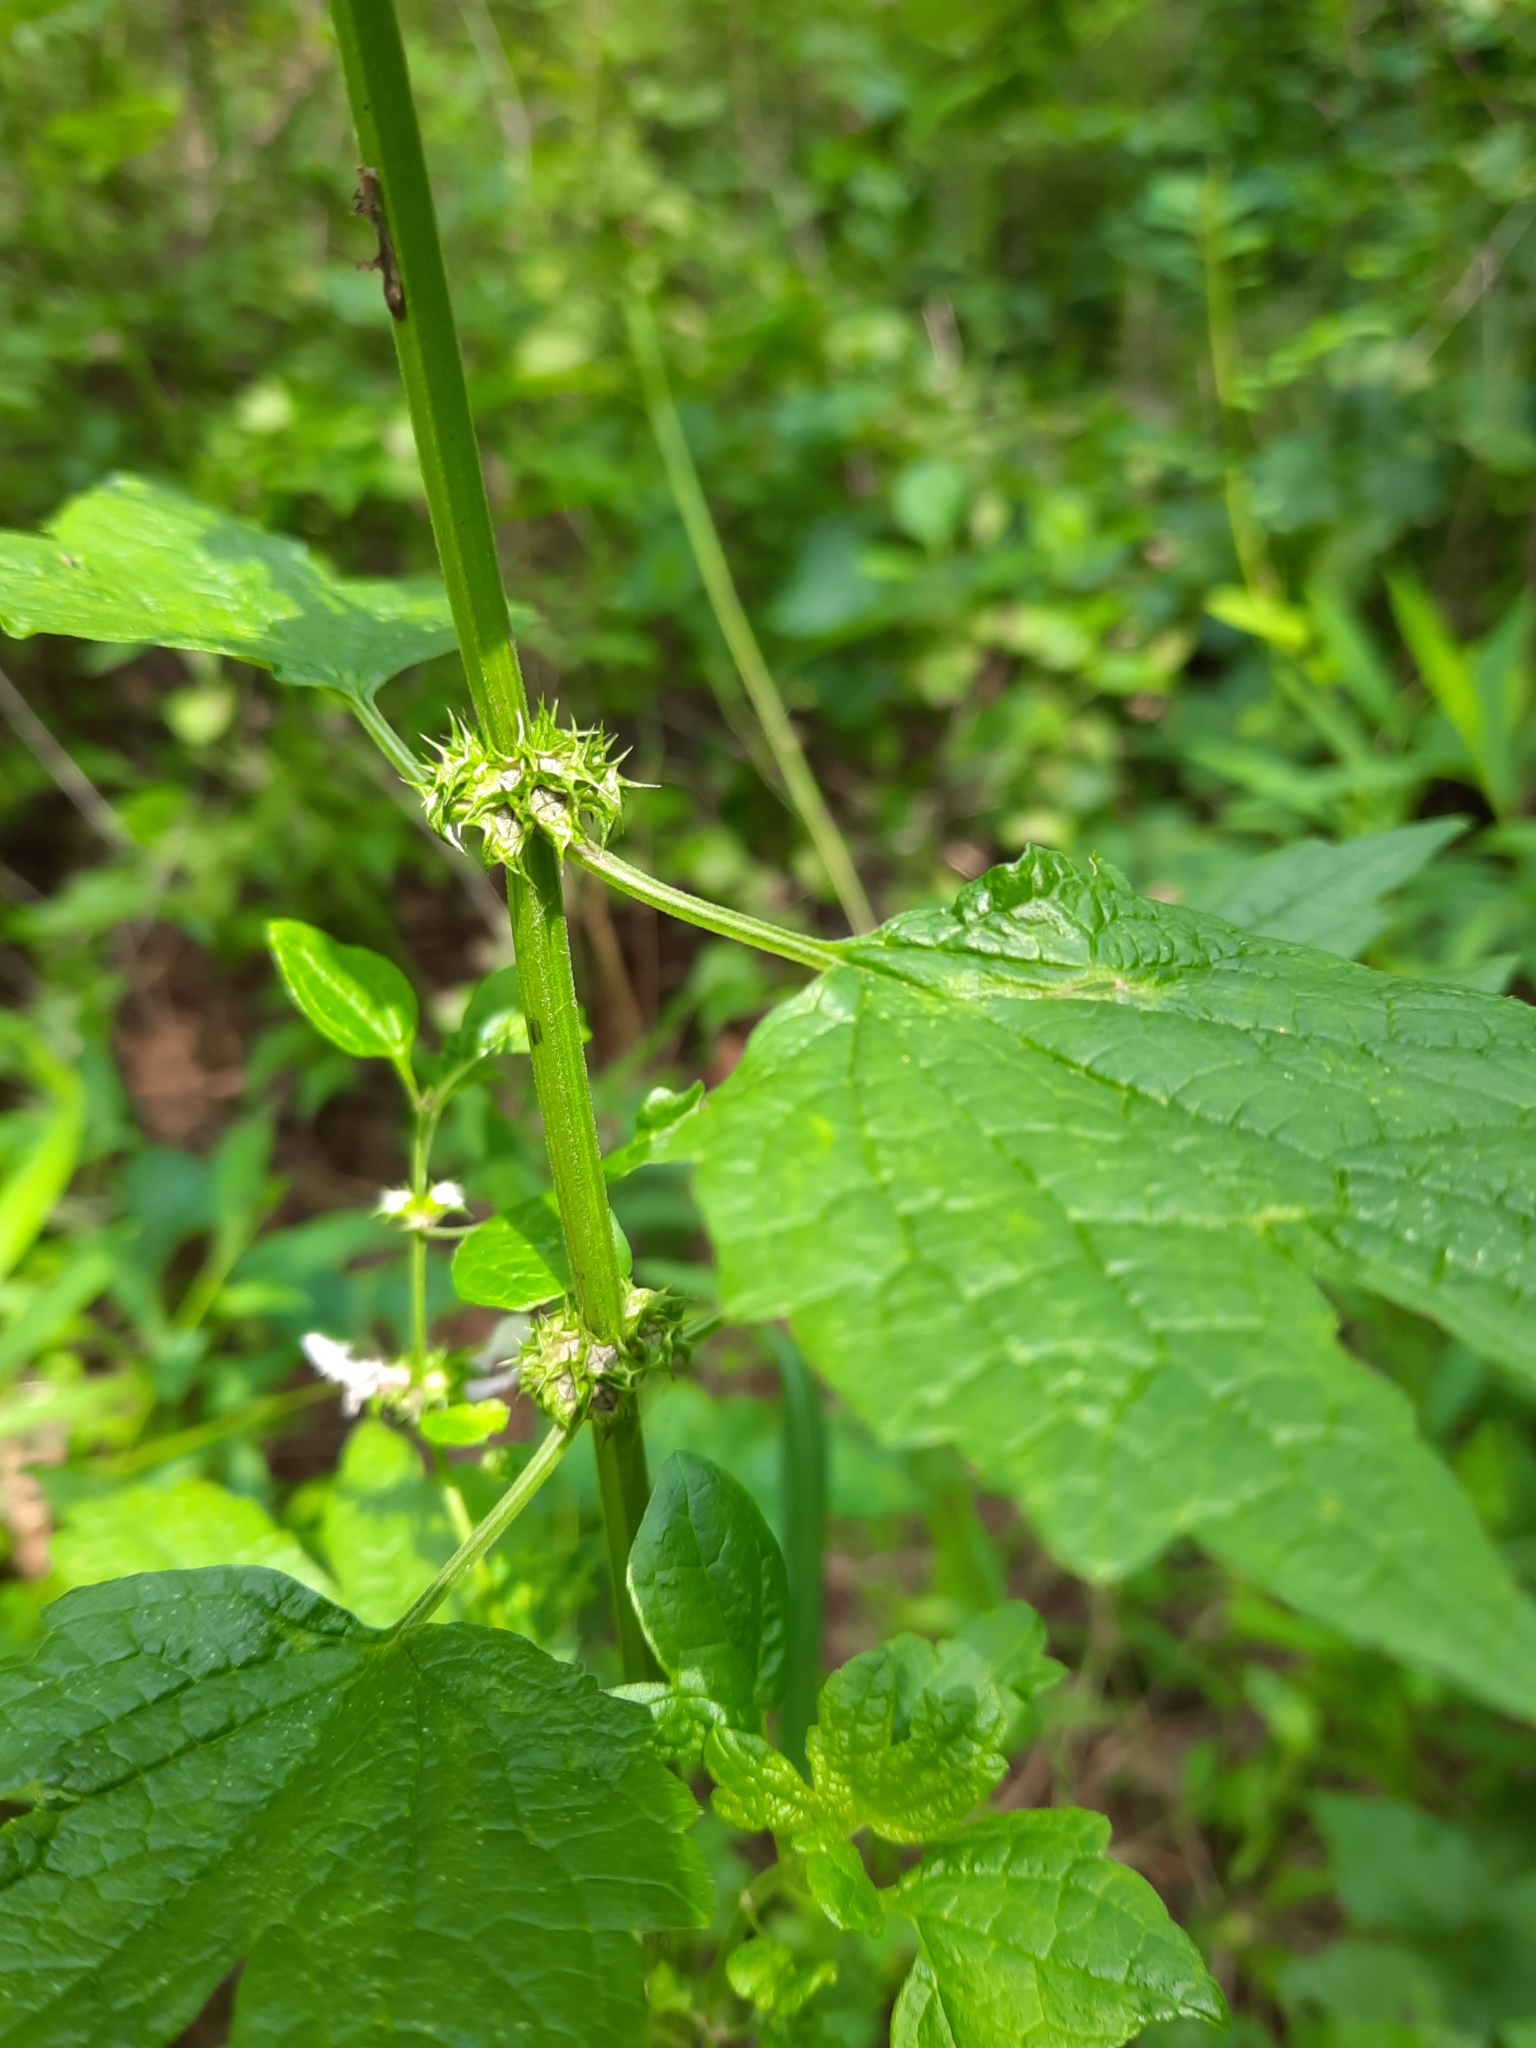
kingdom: Plantae
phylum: Tracheophyta
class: Magnoliopsida
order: Lamiales
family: Lamiaceae
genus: Leonurus
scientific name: Leonurus cardiaca
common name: Motherwort
